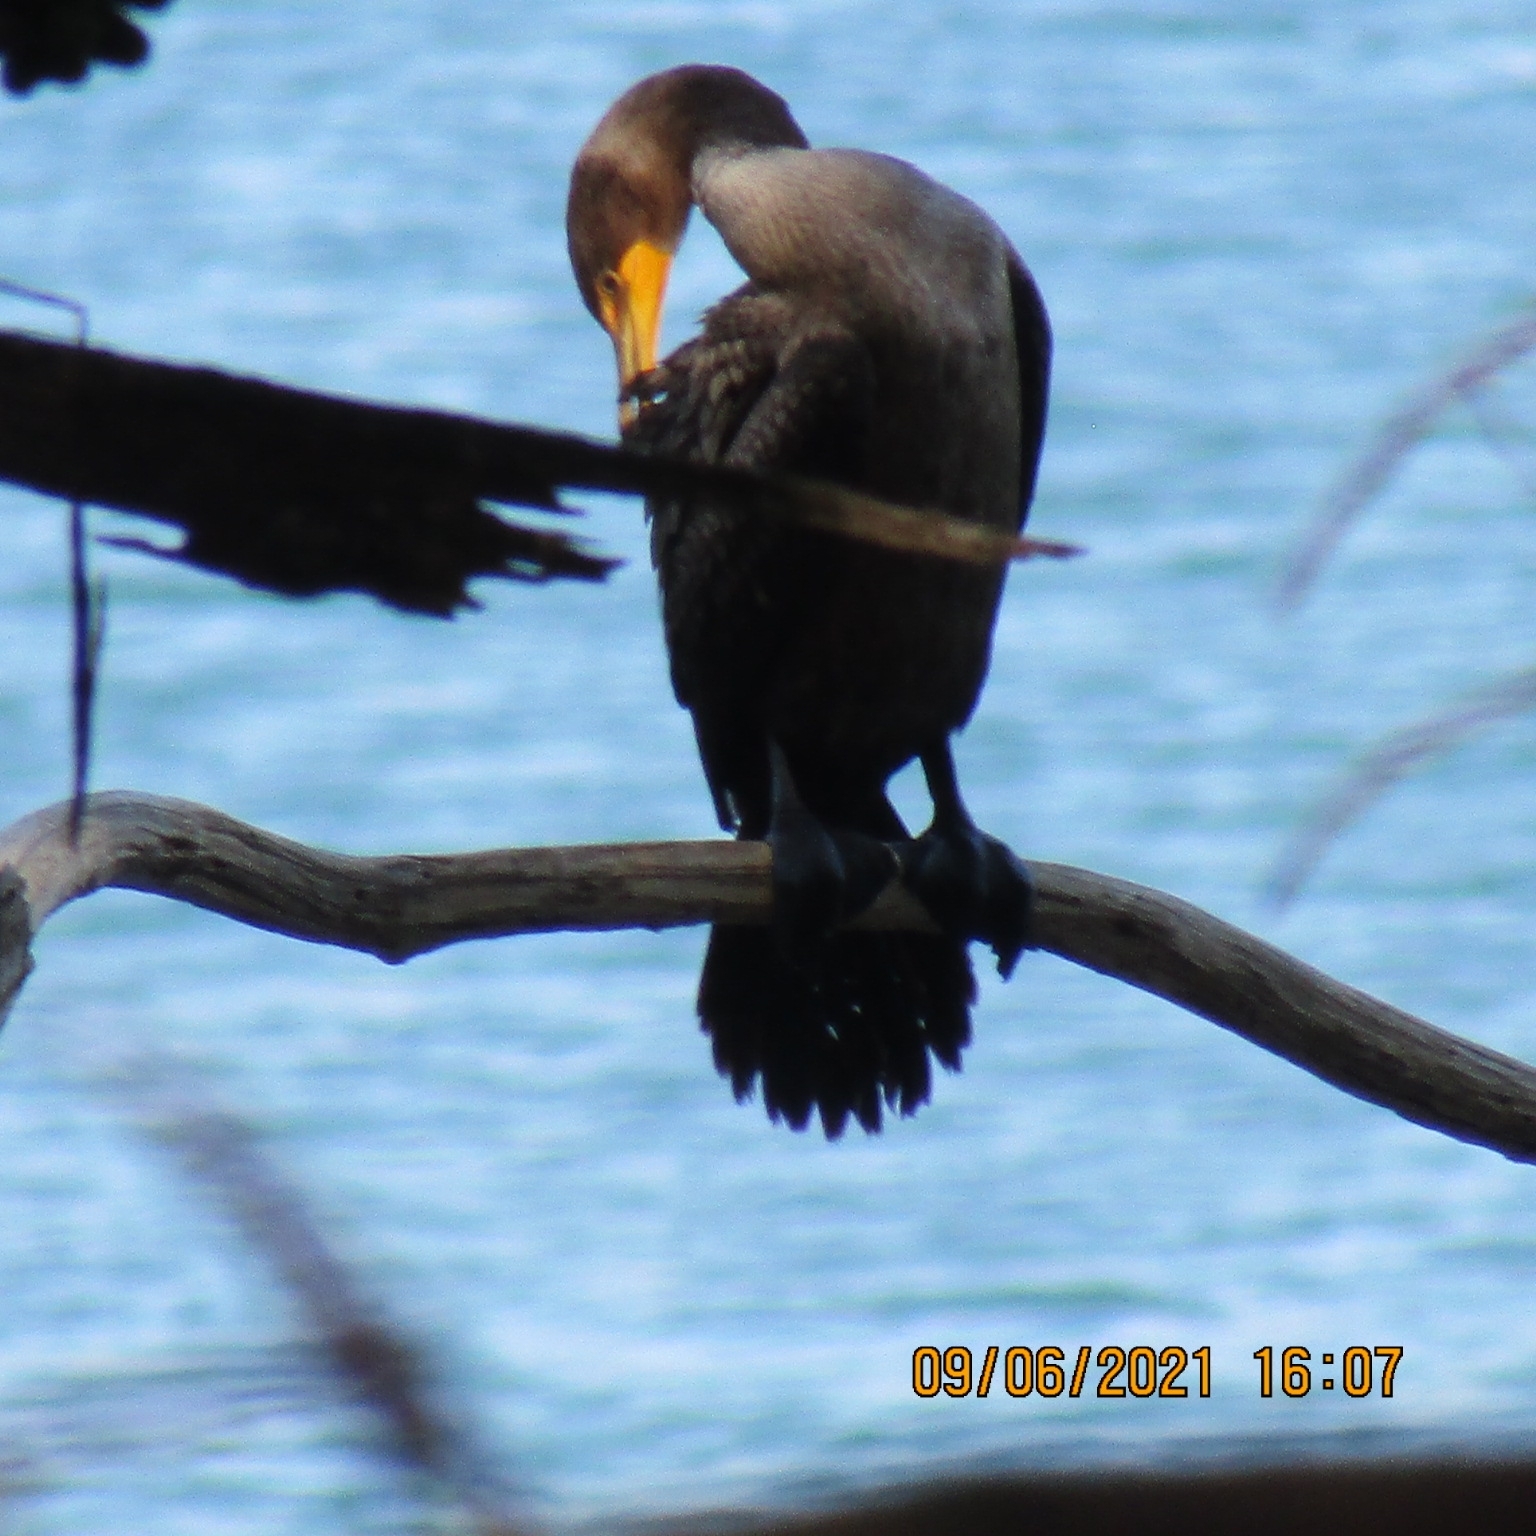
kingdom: Animalia
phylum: Chordata
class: Aves
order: Suliformes
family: Phalacrocoracidae
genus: Phalacrocorax
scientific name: Phalacrocorax auritus
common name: Double-crested cormorant
